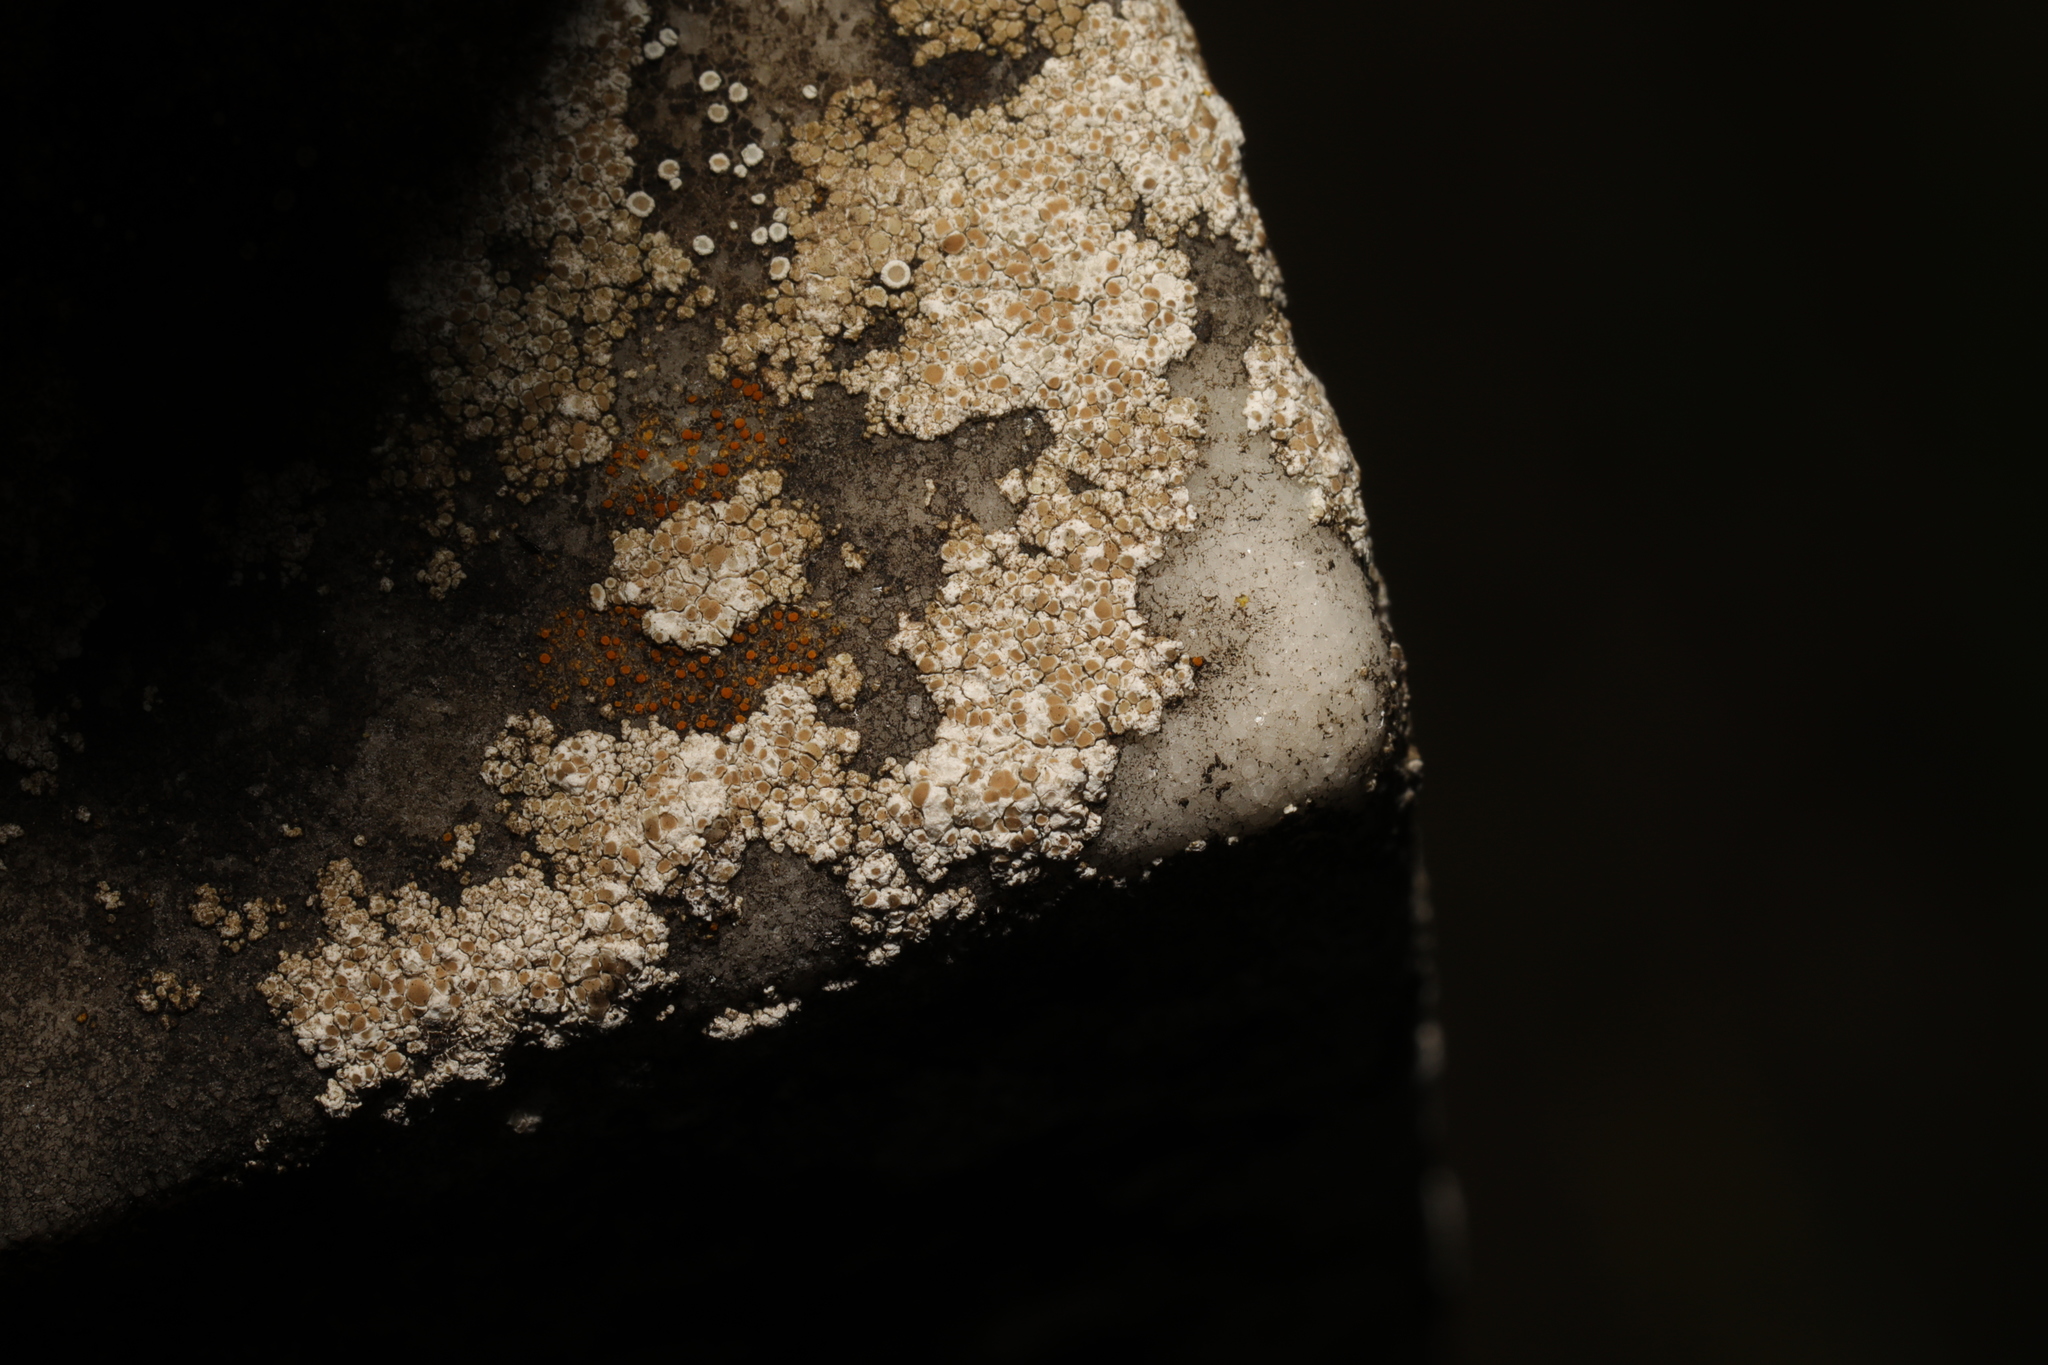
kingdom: Fungi
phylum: Ascomycota
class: Lecanoromycetes
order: Lecanorales
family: Lecanoraceae
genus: Polyozosia
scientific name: Polyozosia albescens
